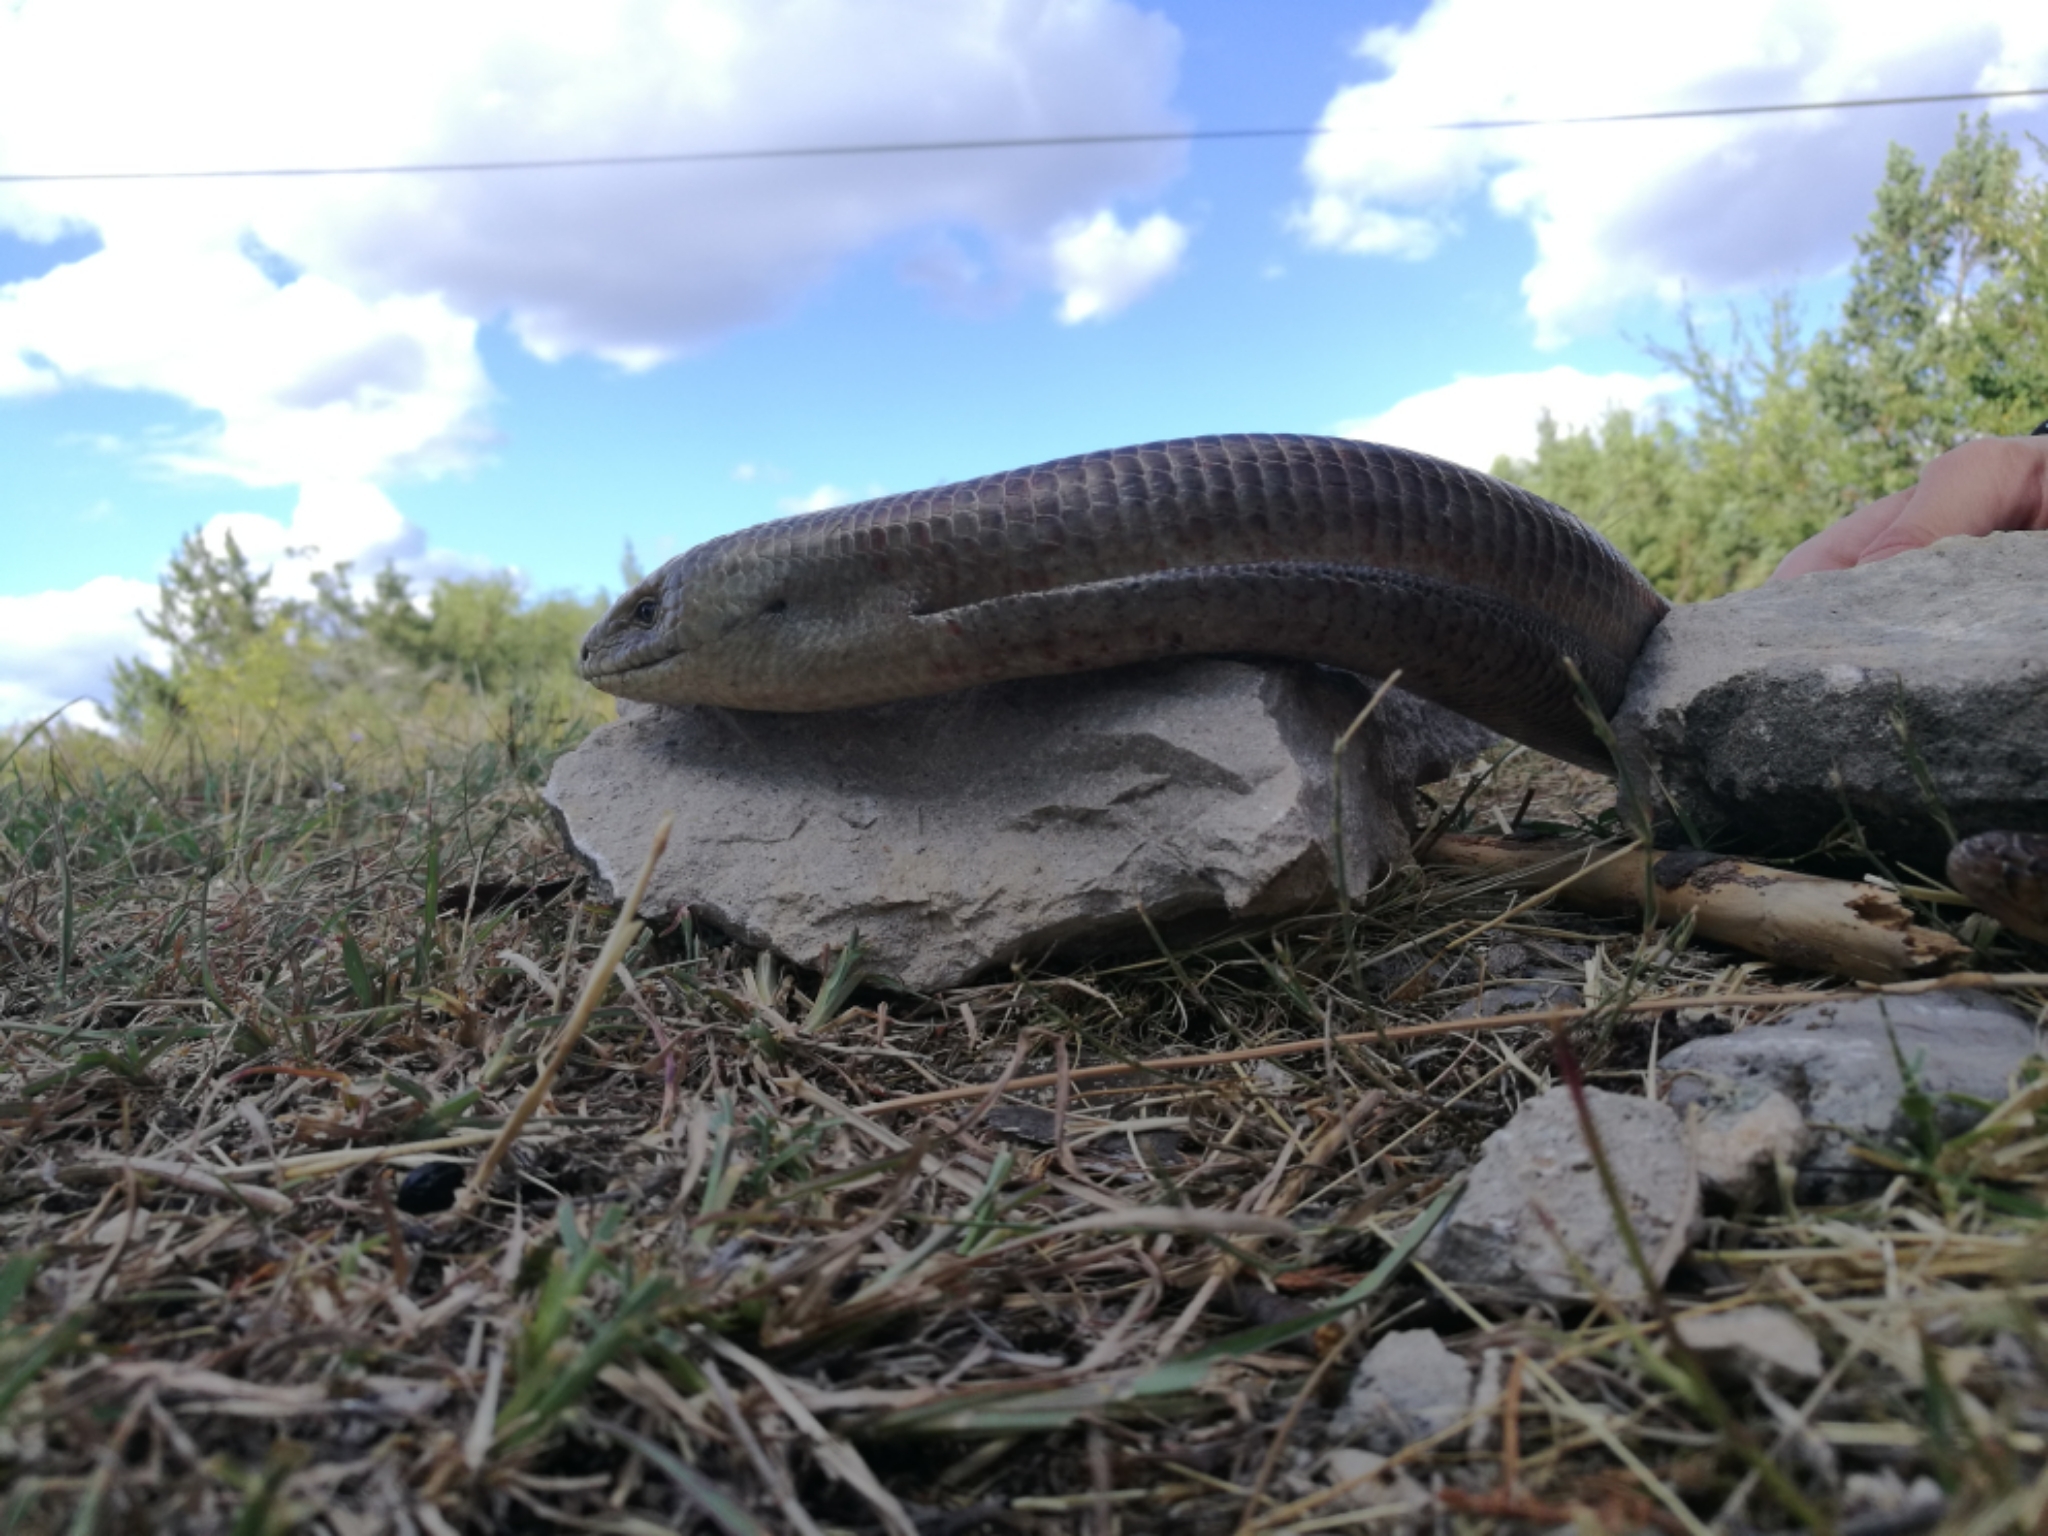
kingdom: Animalia
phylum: Chordata
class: Squamata
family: Anguidae
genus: Pseudopus
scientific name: Pseudopus apodus
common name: European glass lizard
